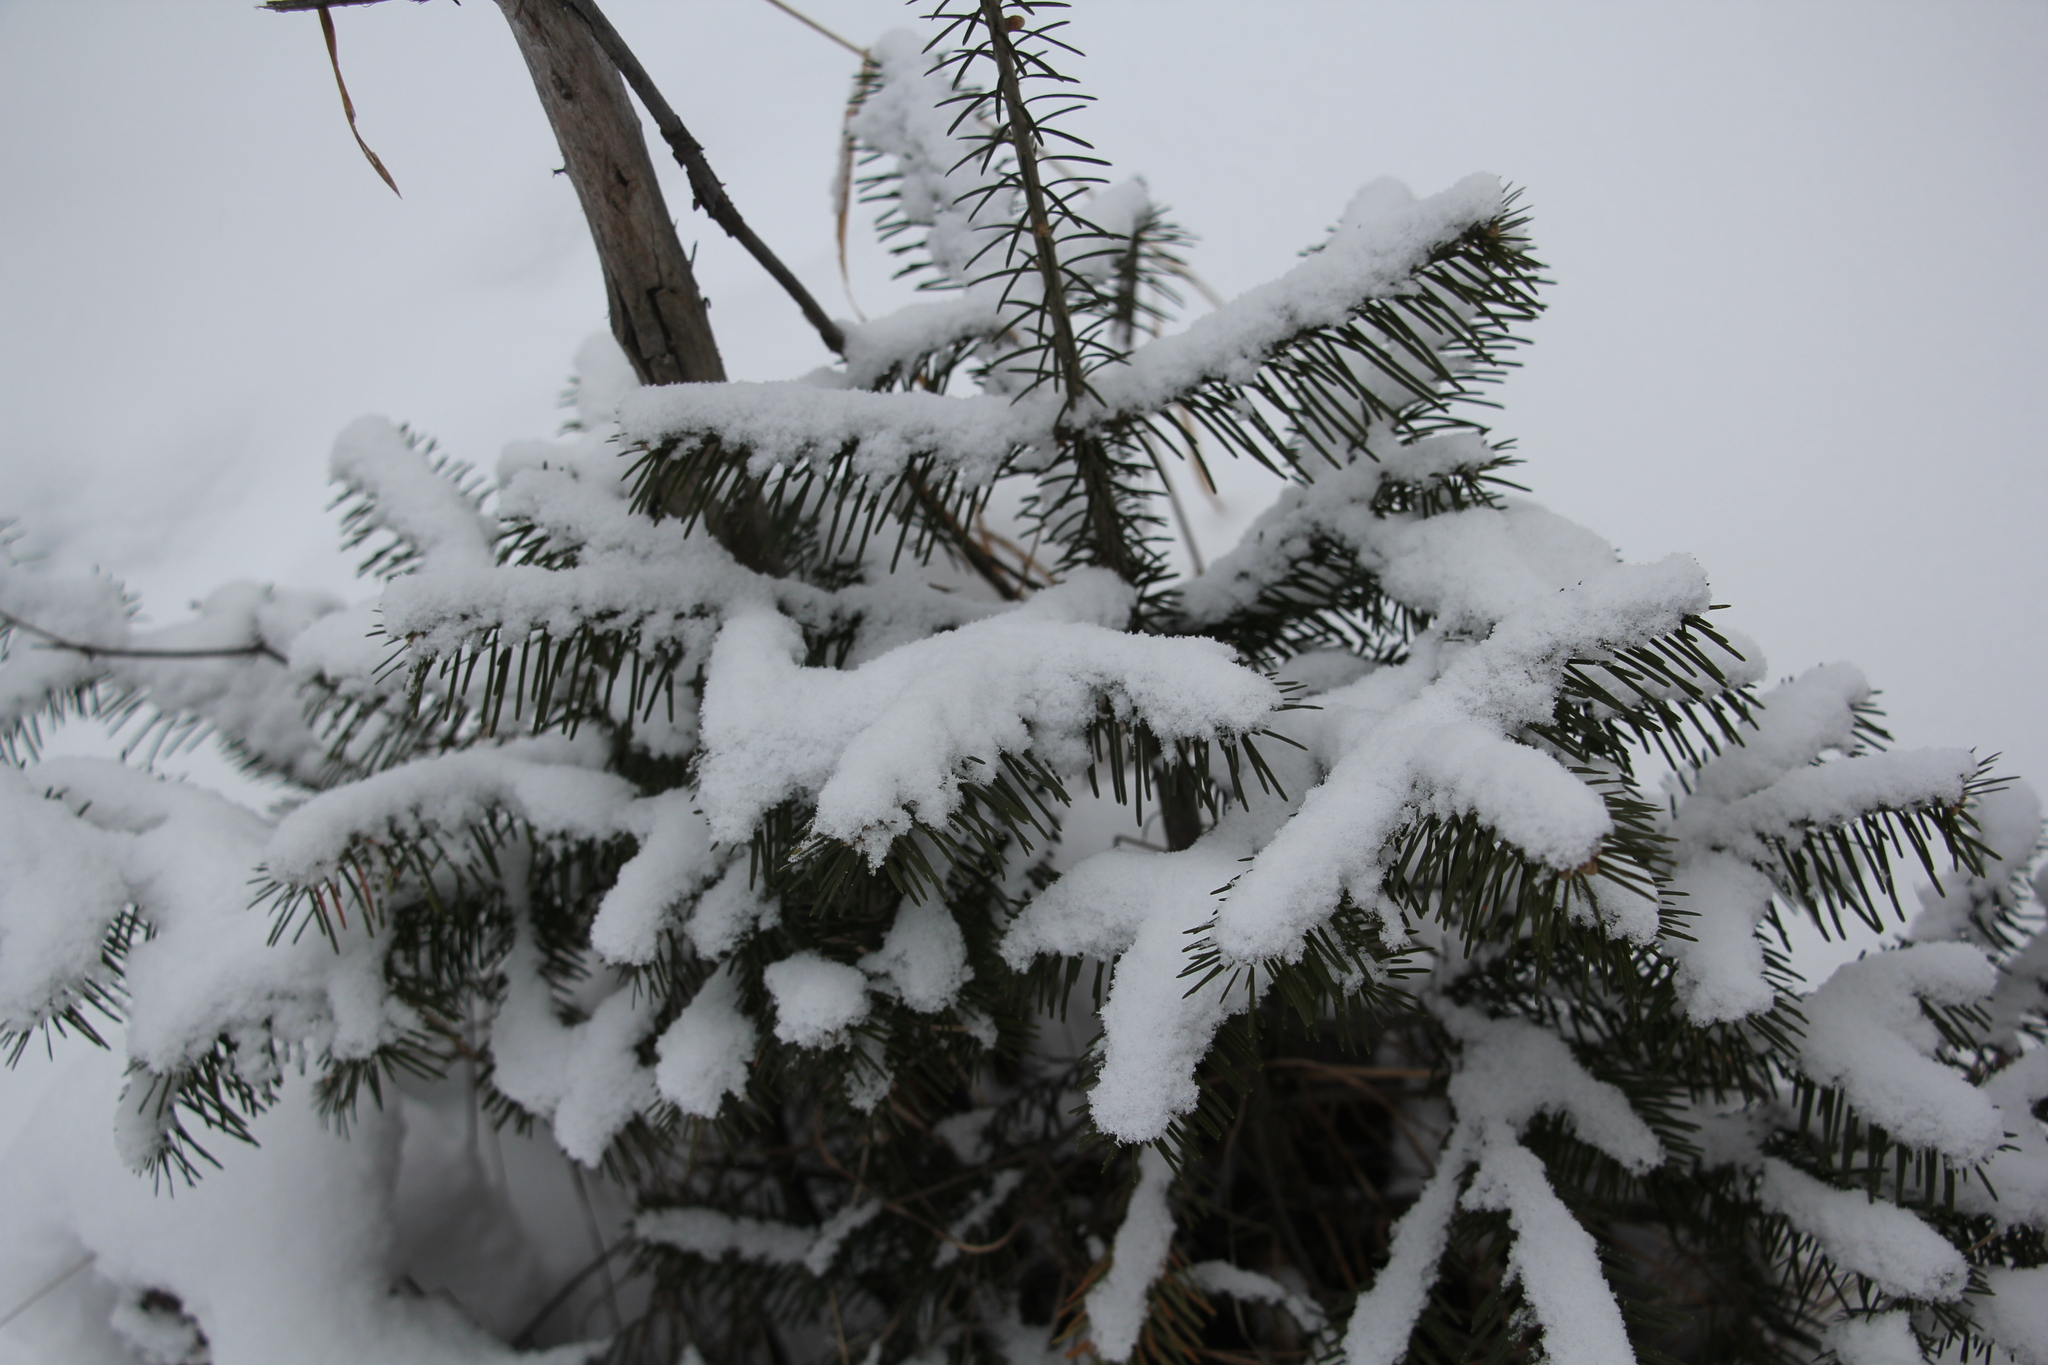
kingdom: Plantae
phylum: Tracheophyta
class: Pinopsida
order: Pinales
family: Pinaceae
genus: Abies
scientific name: Abies sibirica
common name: Siberian fir
